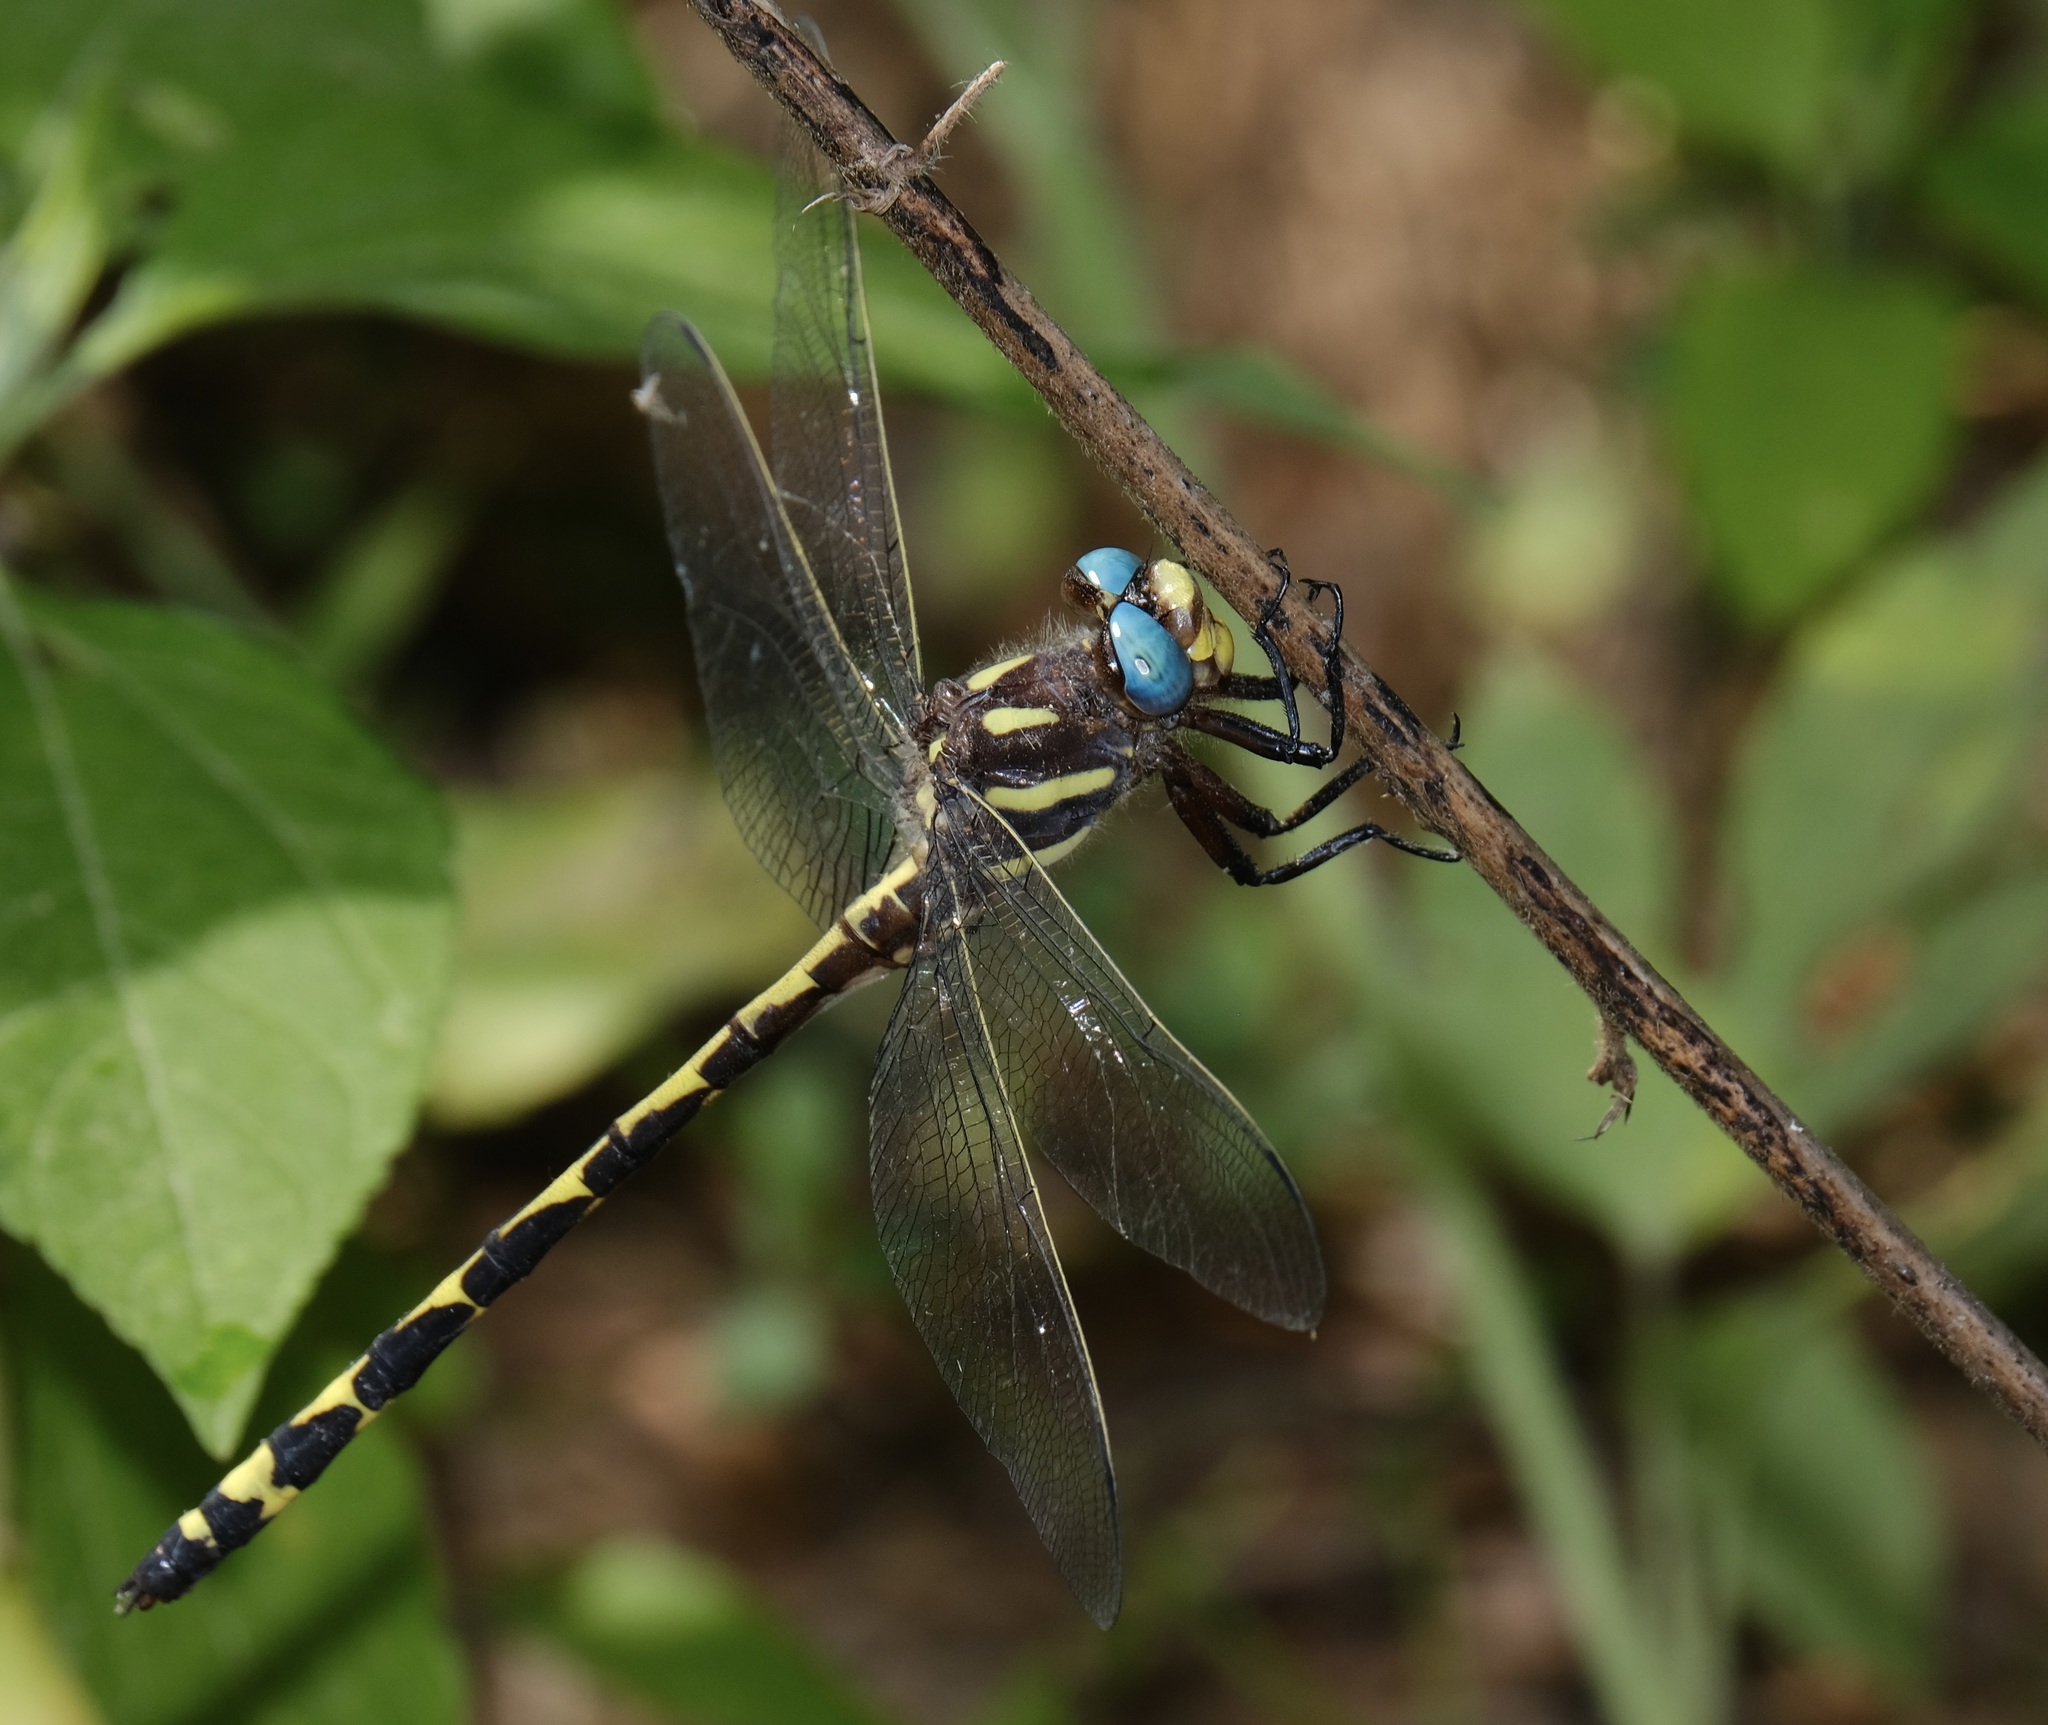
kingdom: Animalia
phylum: Arthropoda
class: Insecta
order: Odonata
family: Cordulegastridae
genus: Cordulegaster
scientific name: Cordulegaster obliqua
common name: Arrowhead spiketail
